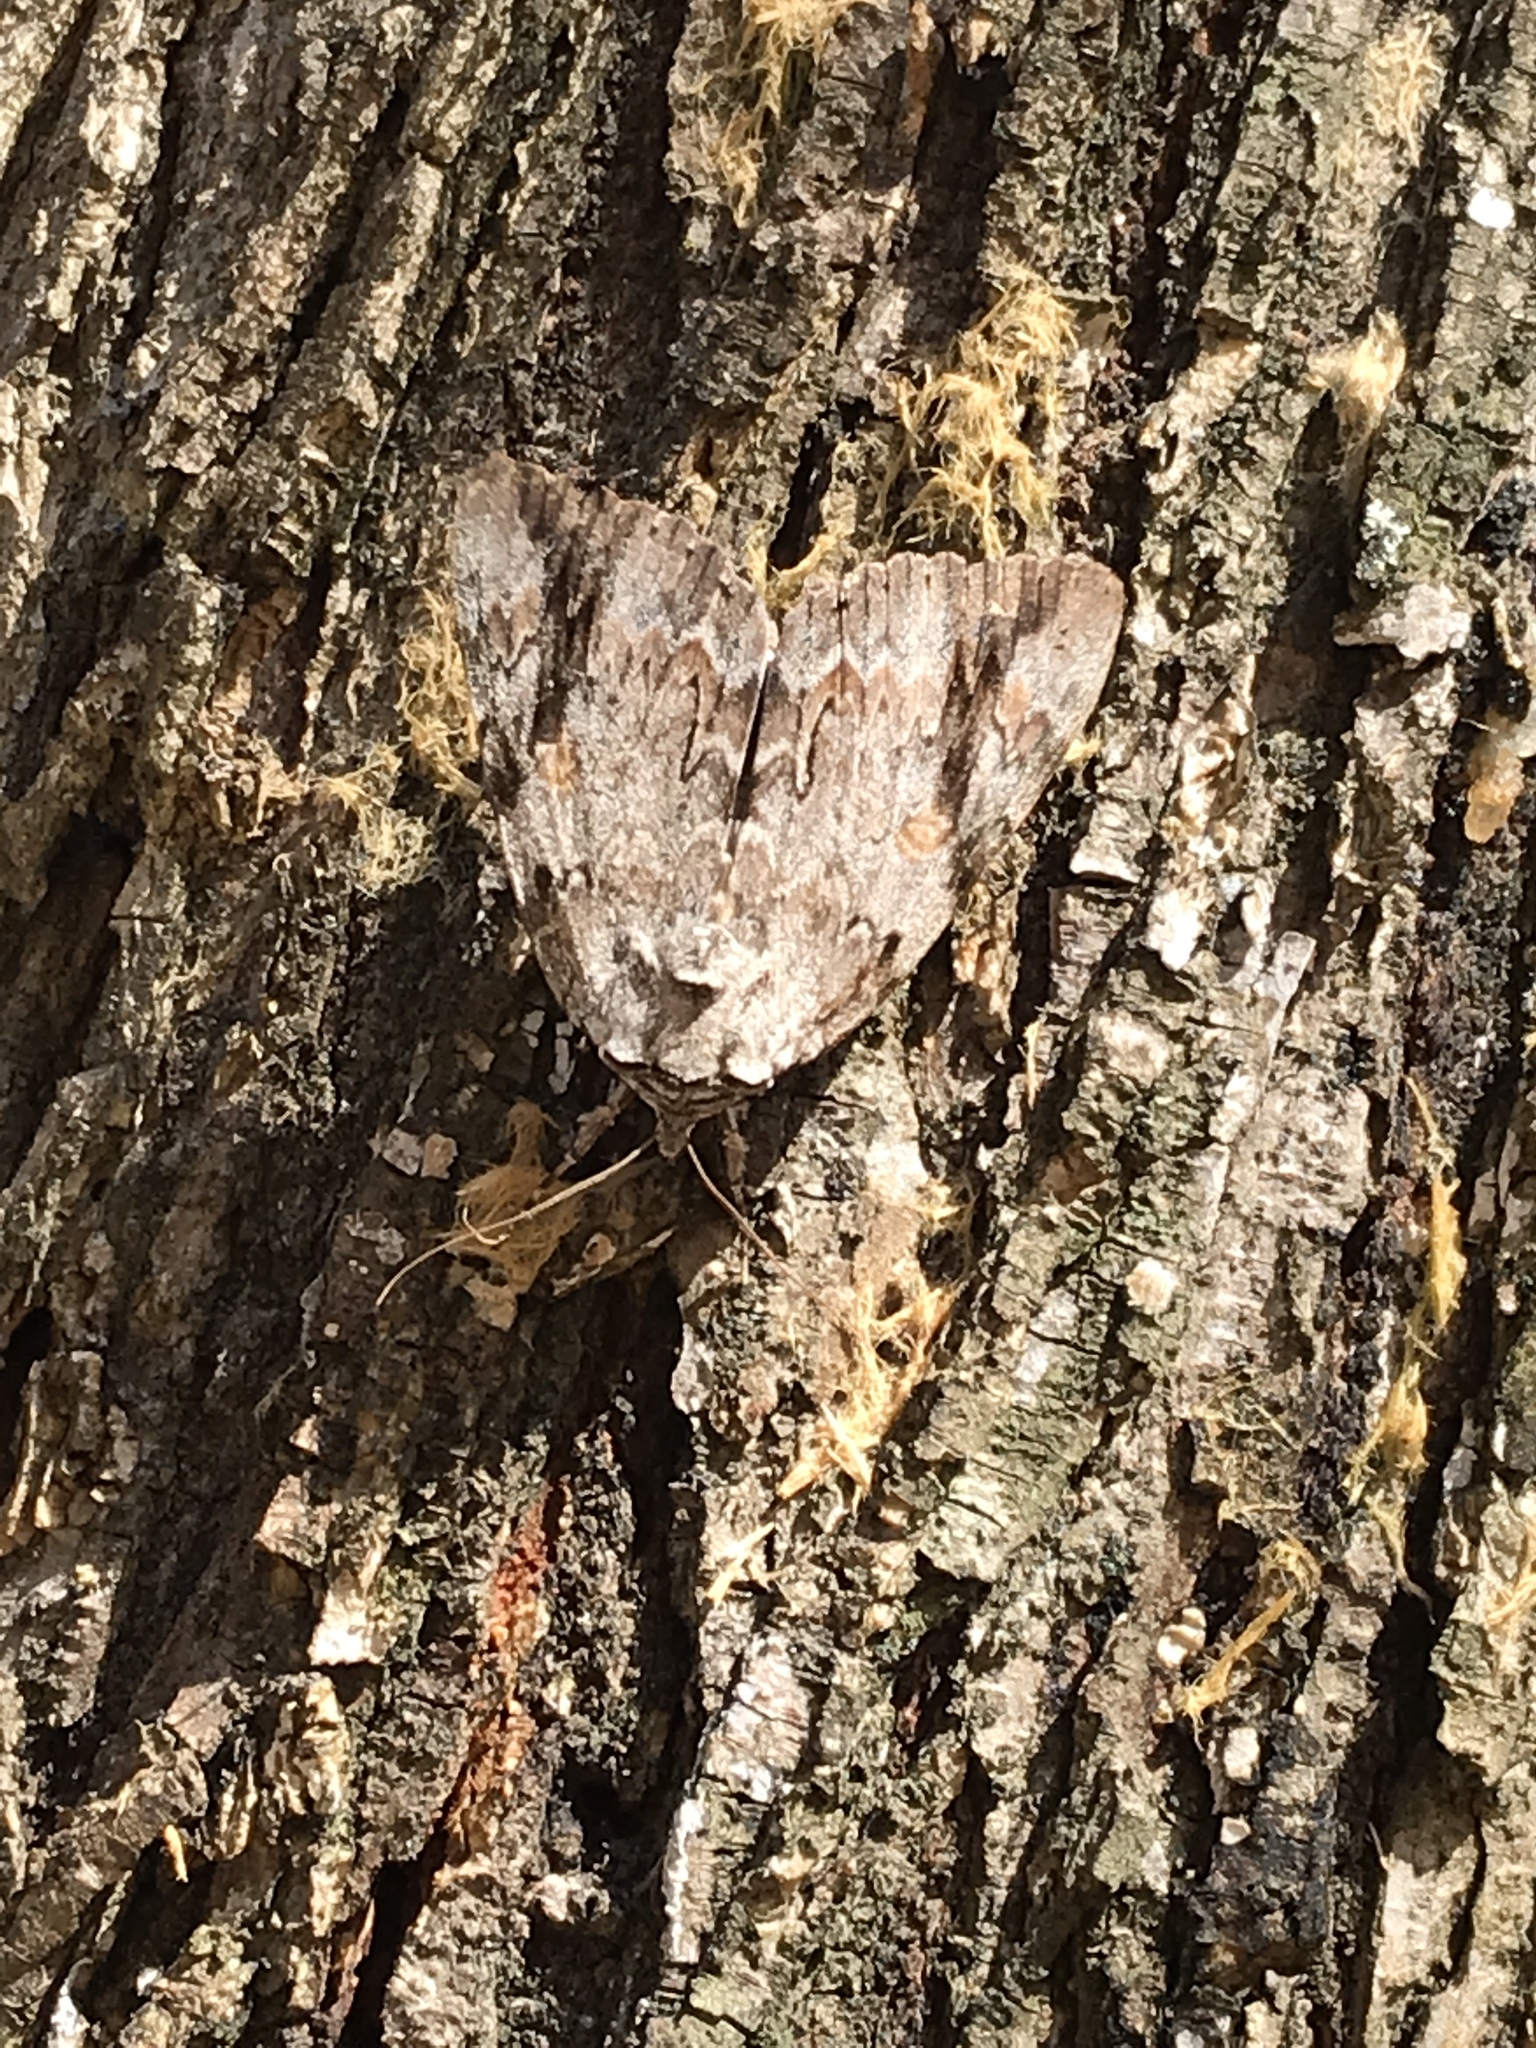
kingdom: Animalia
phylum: Arthropoda
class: Insecta
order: Lepidoptera
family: Erebidae
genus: Catocala
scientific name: Catocala maestosa
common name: Sad underwing
